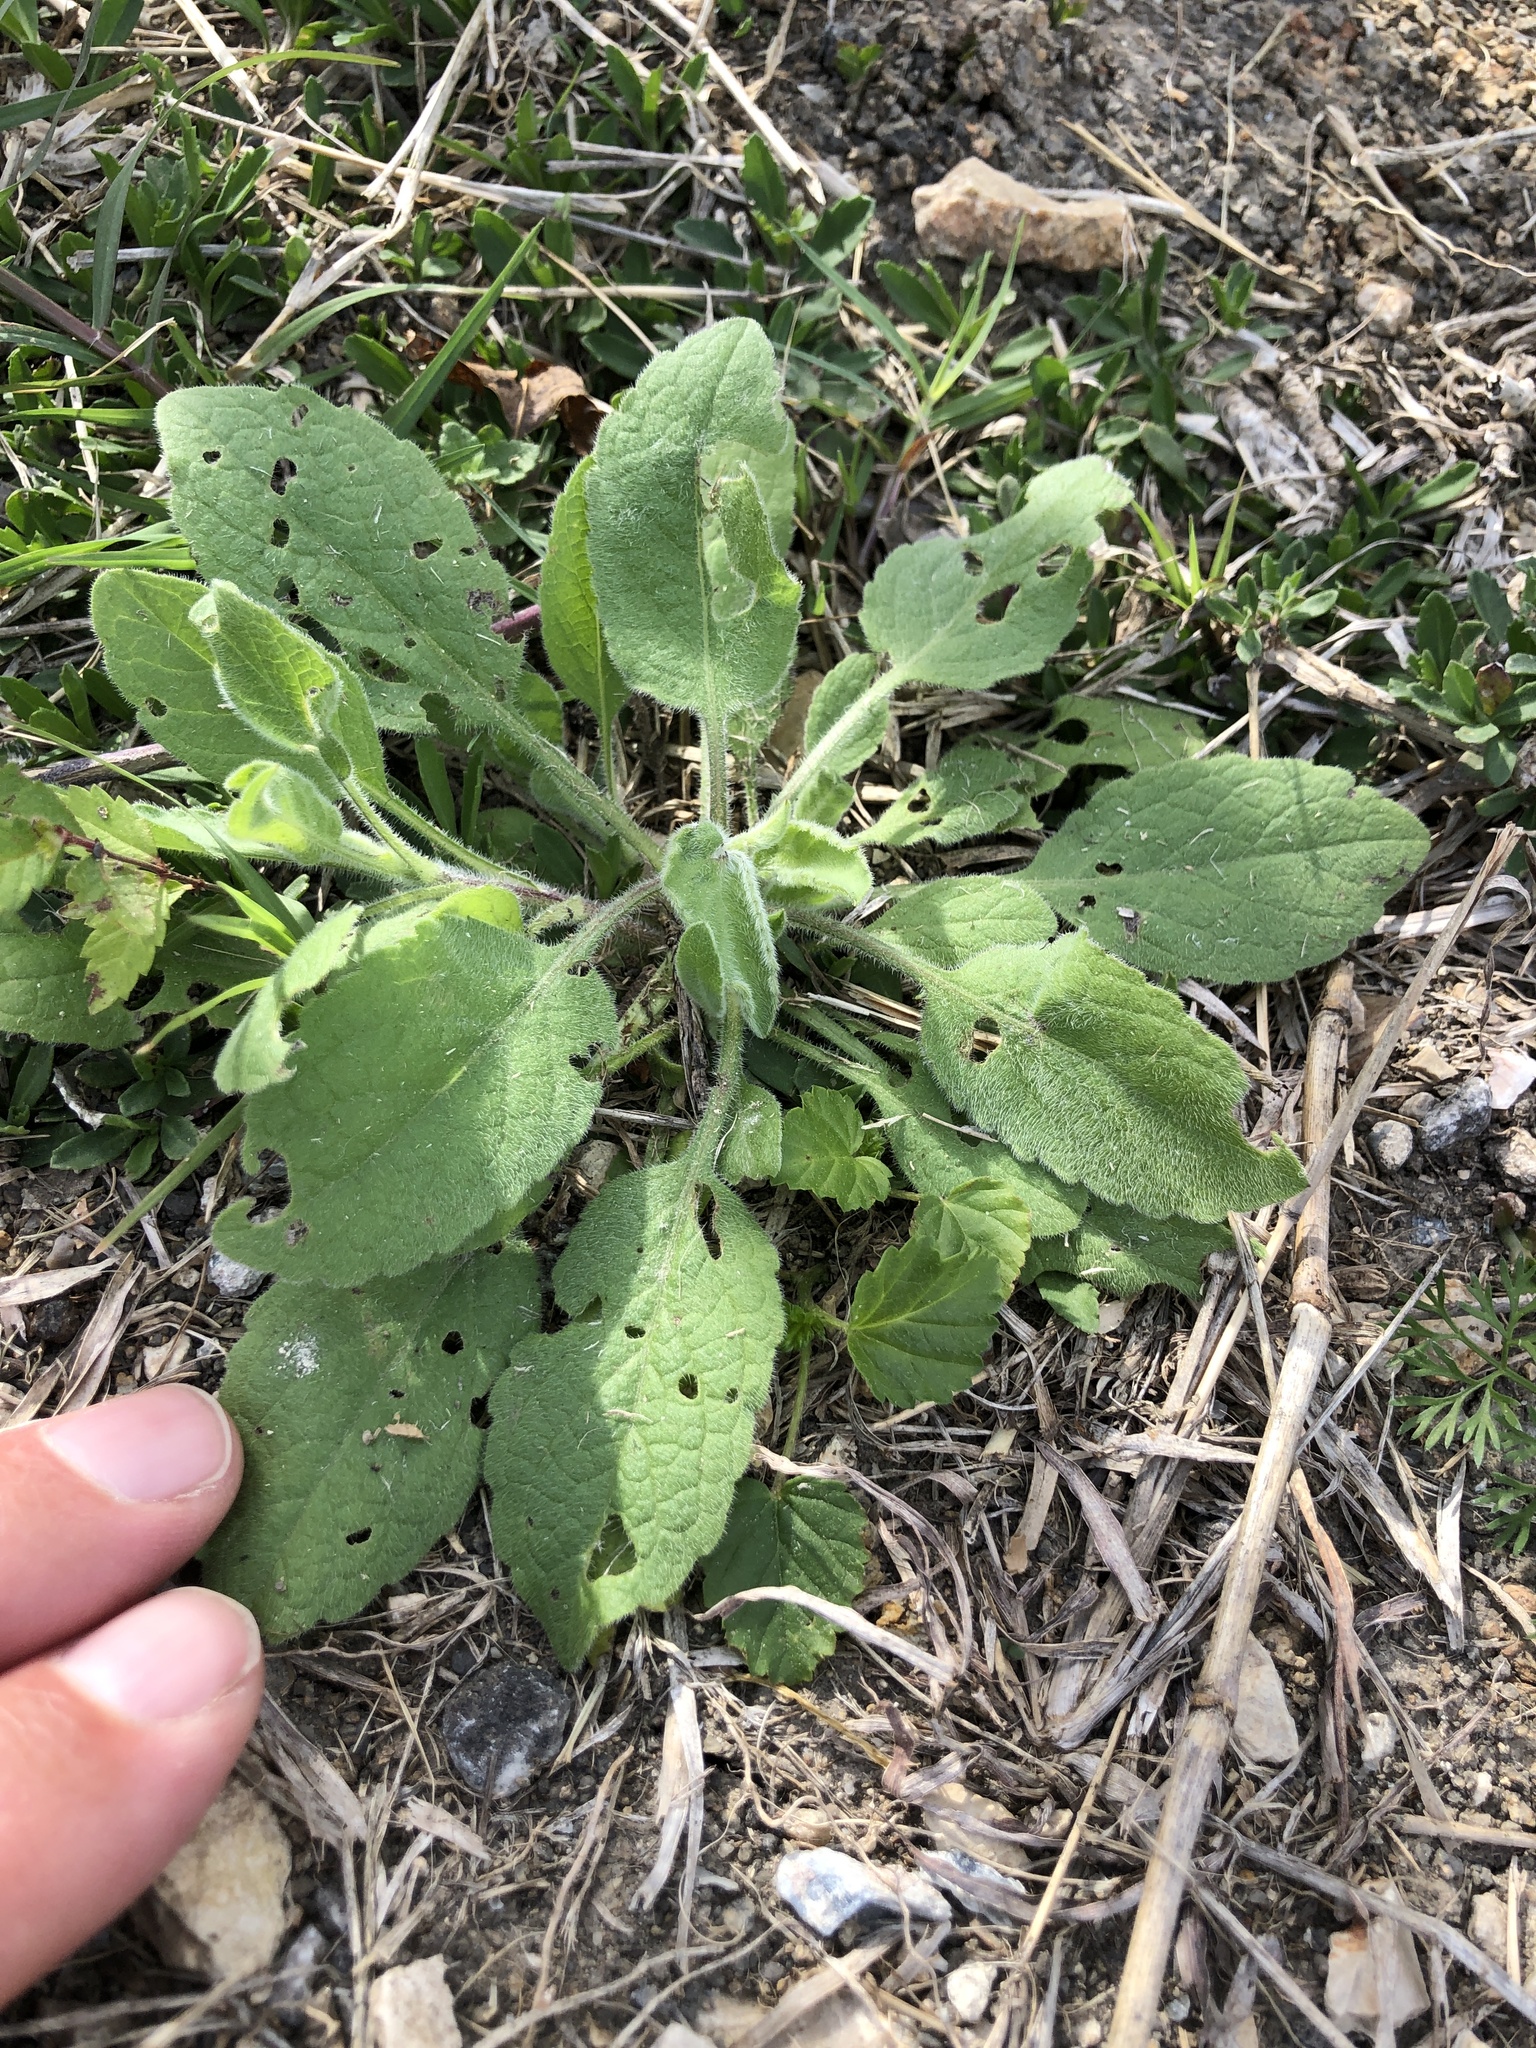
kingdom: Plantae
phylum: Tracheophyta
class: Magnoliopsida
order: Asterales
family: Asteraceae
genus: Heterotheca
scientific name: Heterotheca subaxillaris
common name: Camphorweed
